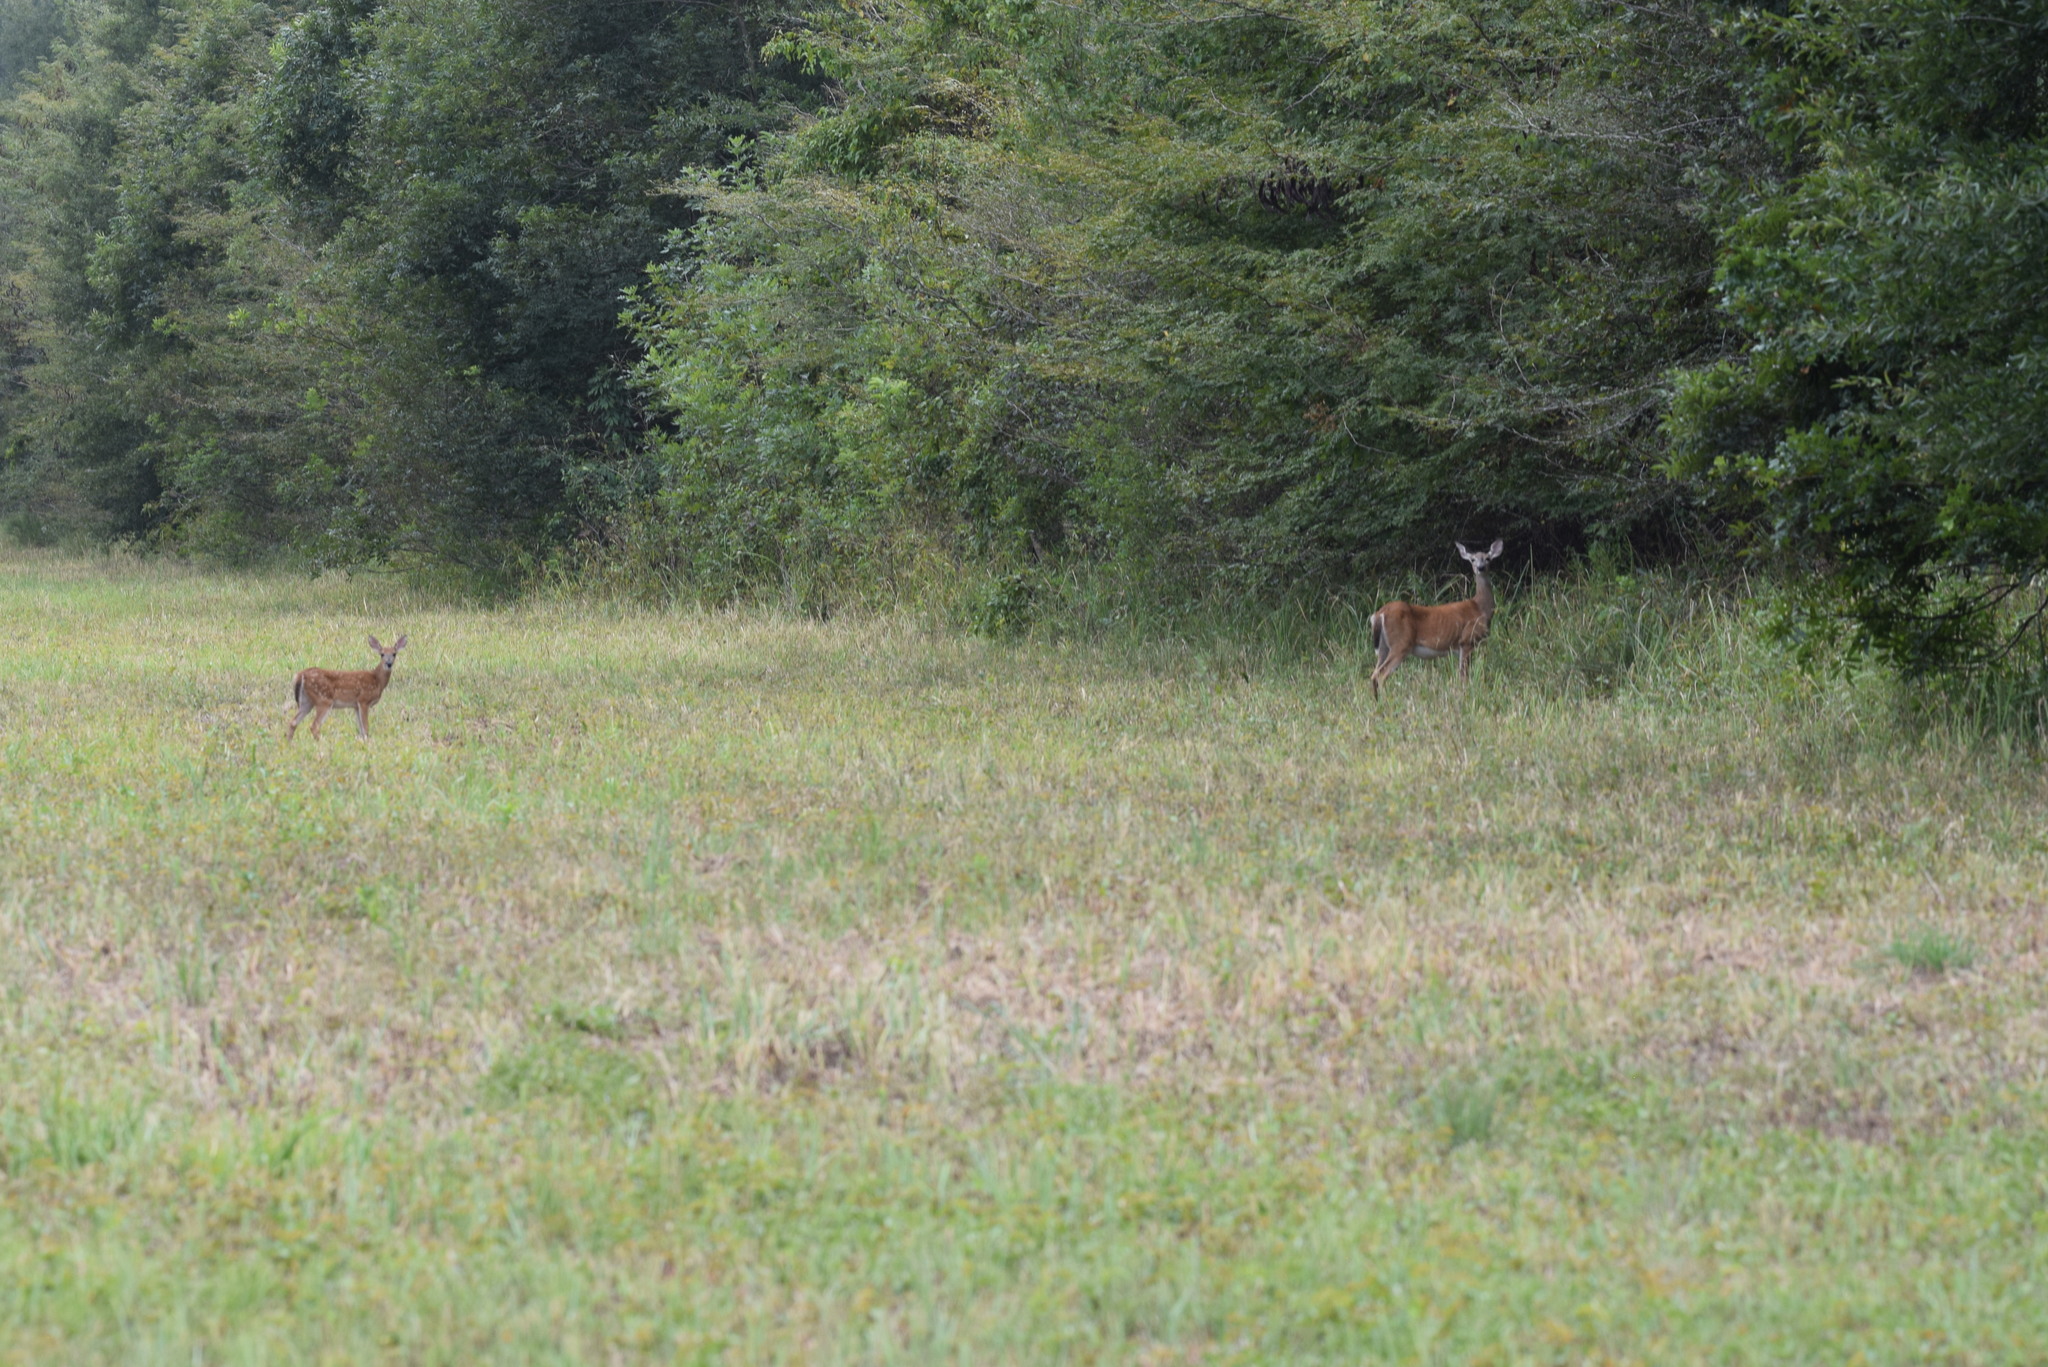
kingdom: Animalia
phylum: Chordata
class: Mammalia
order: Artiodactyla
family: Cervidae
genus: Odocoileus
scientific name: Odocoileus virginianus
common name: White-tailed deer
